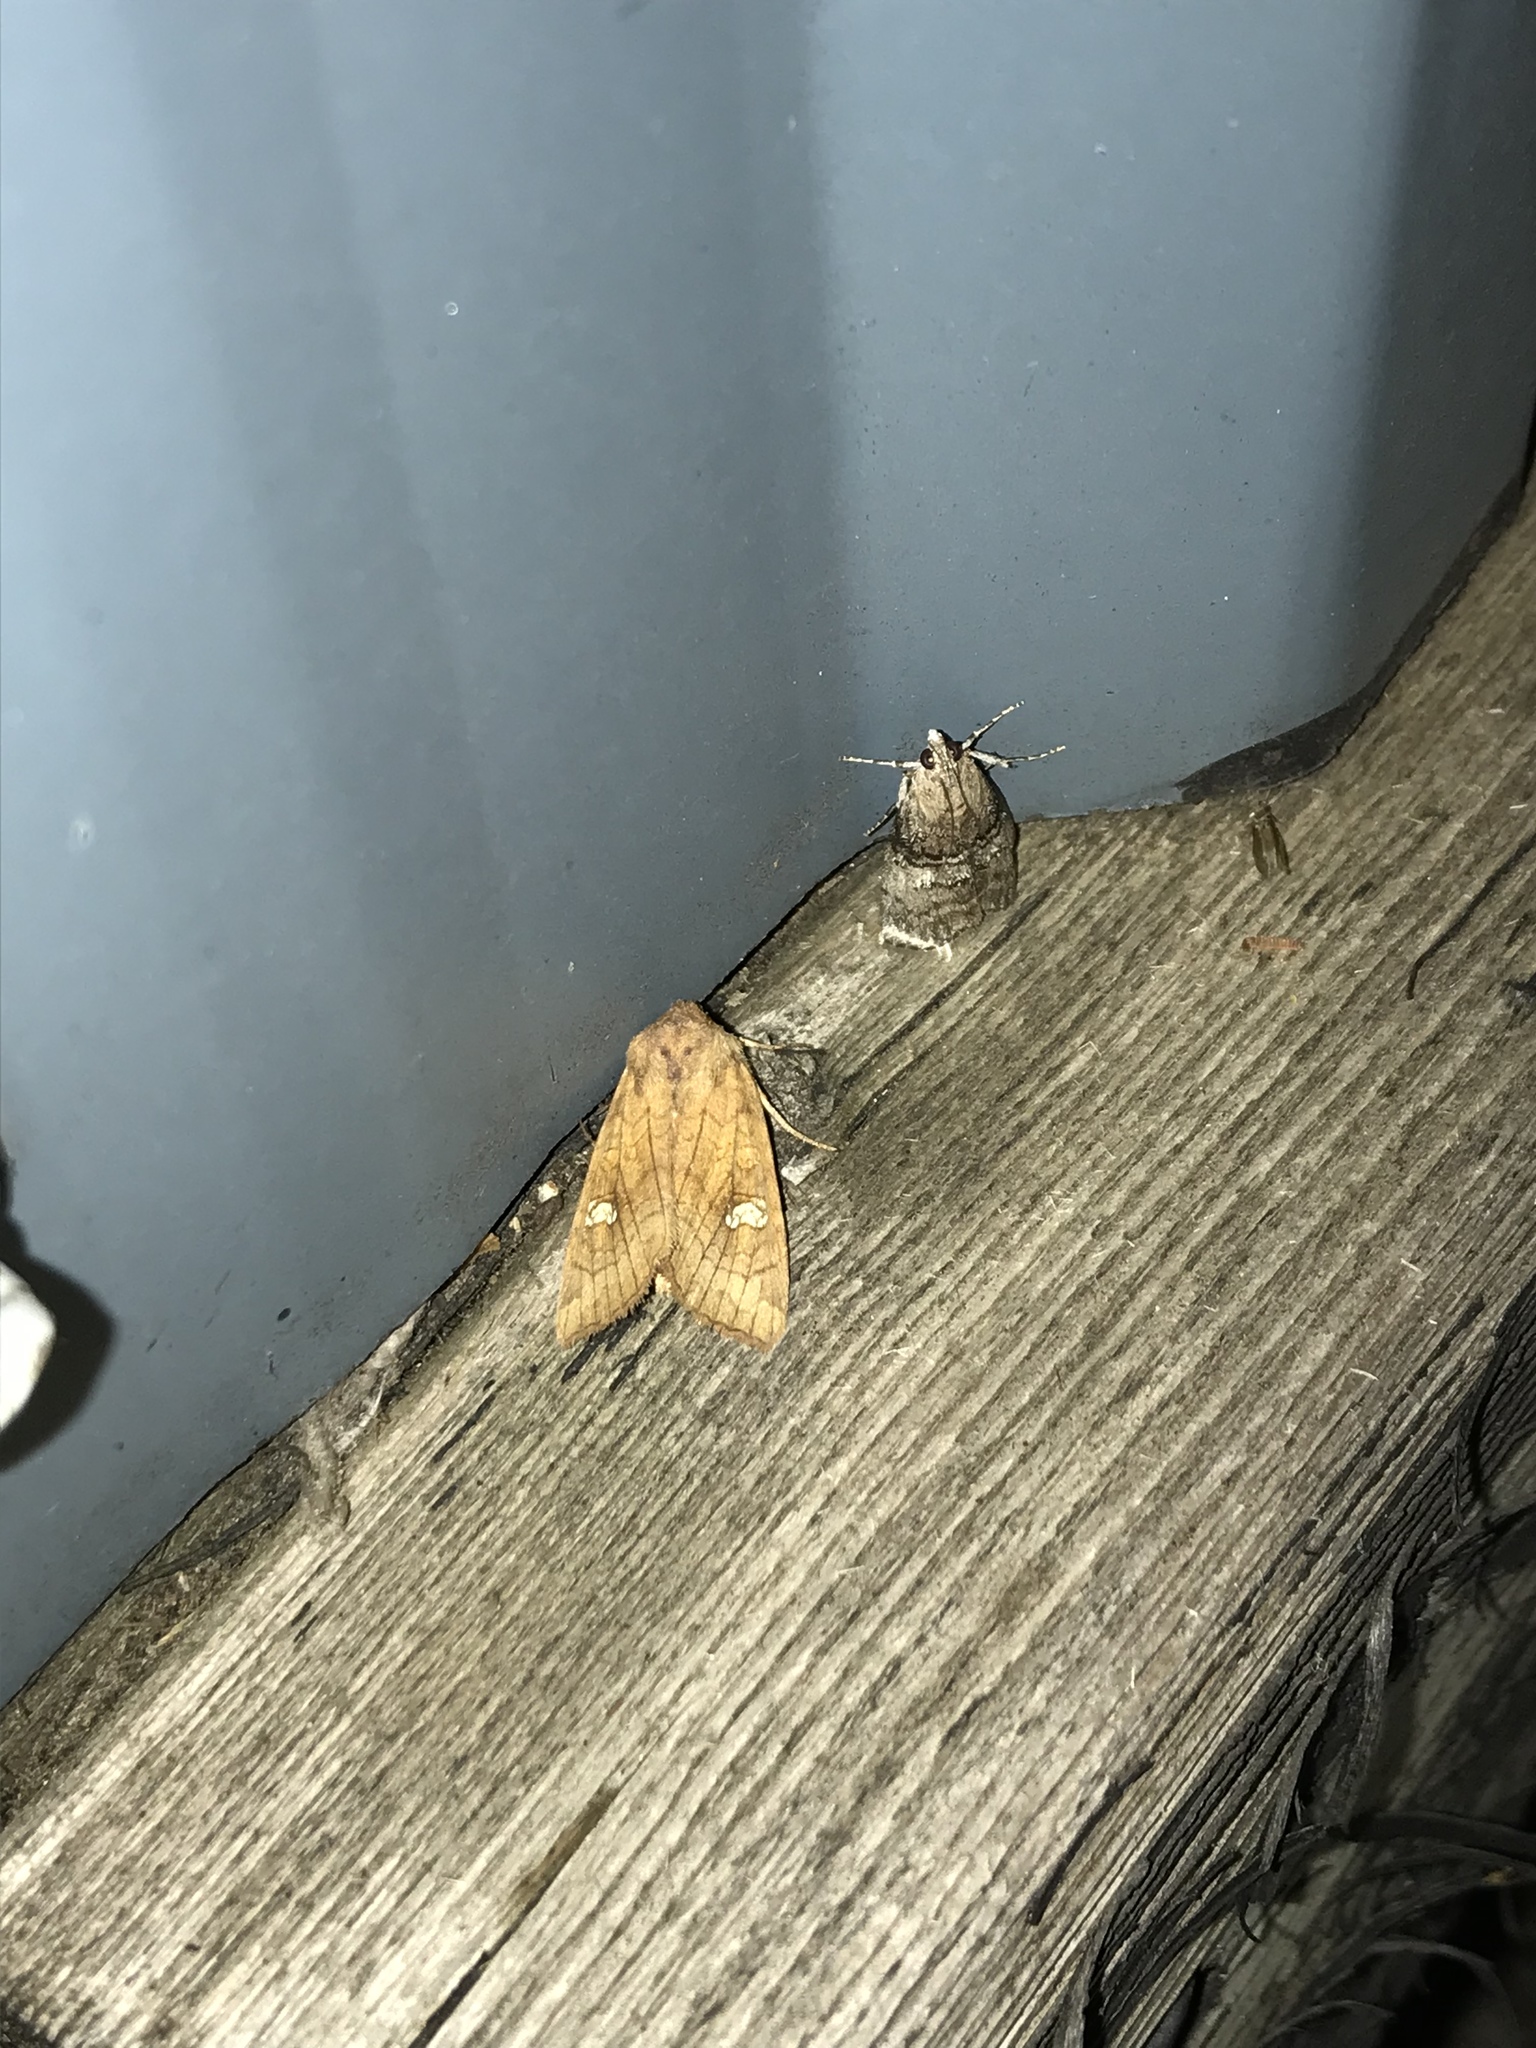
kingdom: Animalia
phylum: Arthropoda
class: Insecta
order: Lepidoptera
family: Noctuidae
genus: Amphipoea
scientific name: Amphipoea americana
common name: American ear moth
